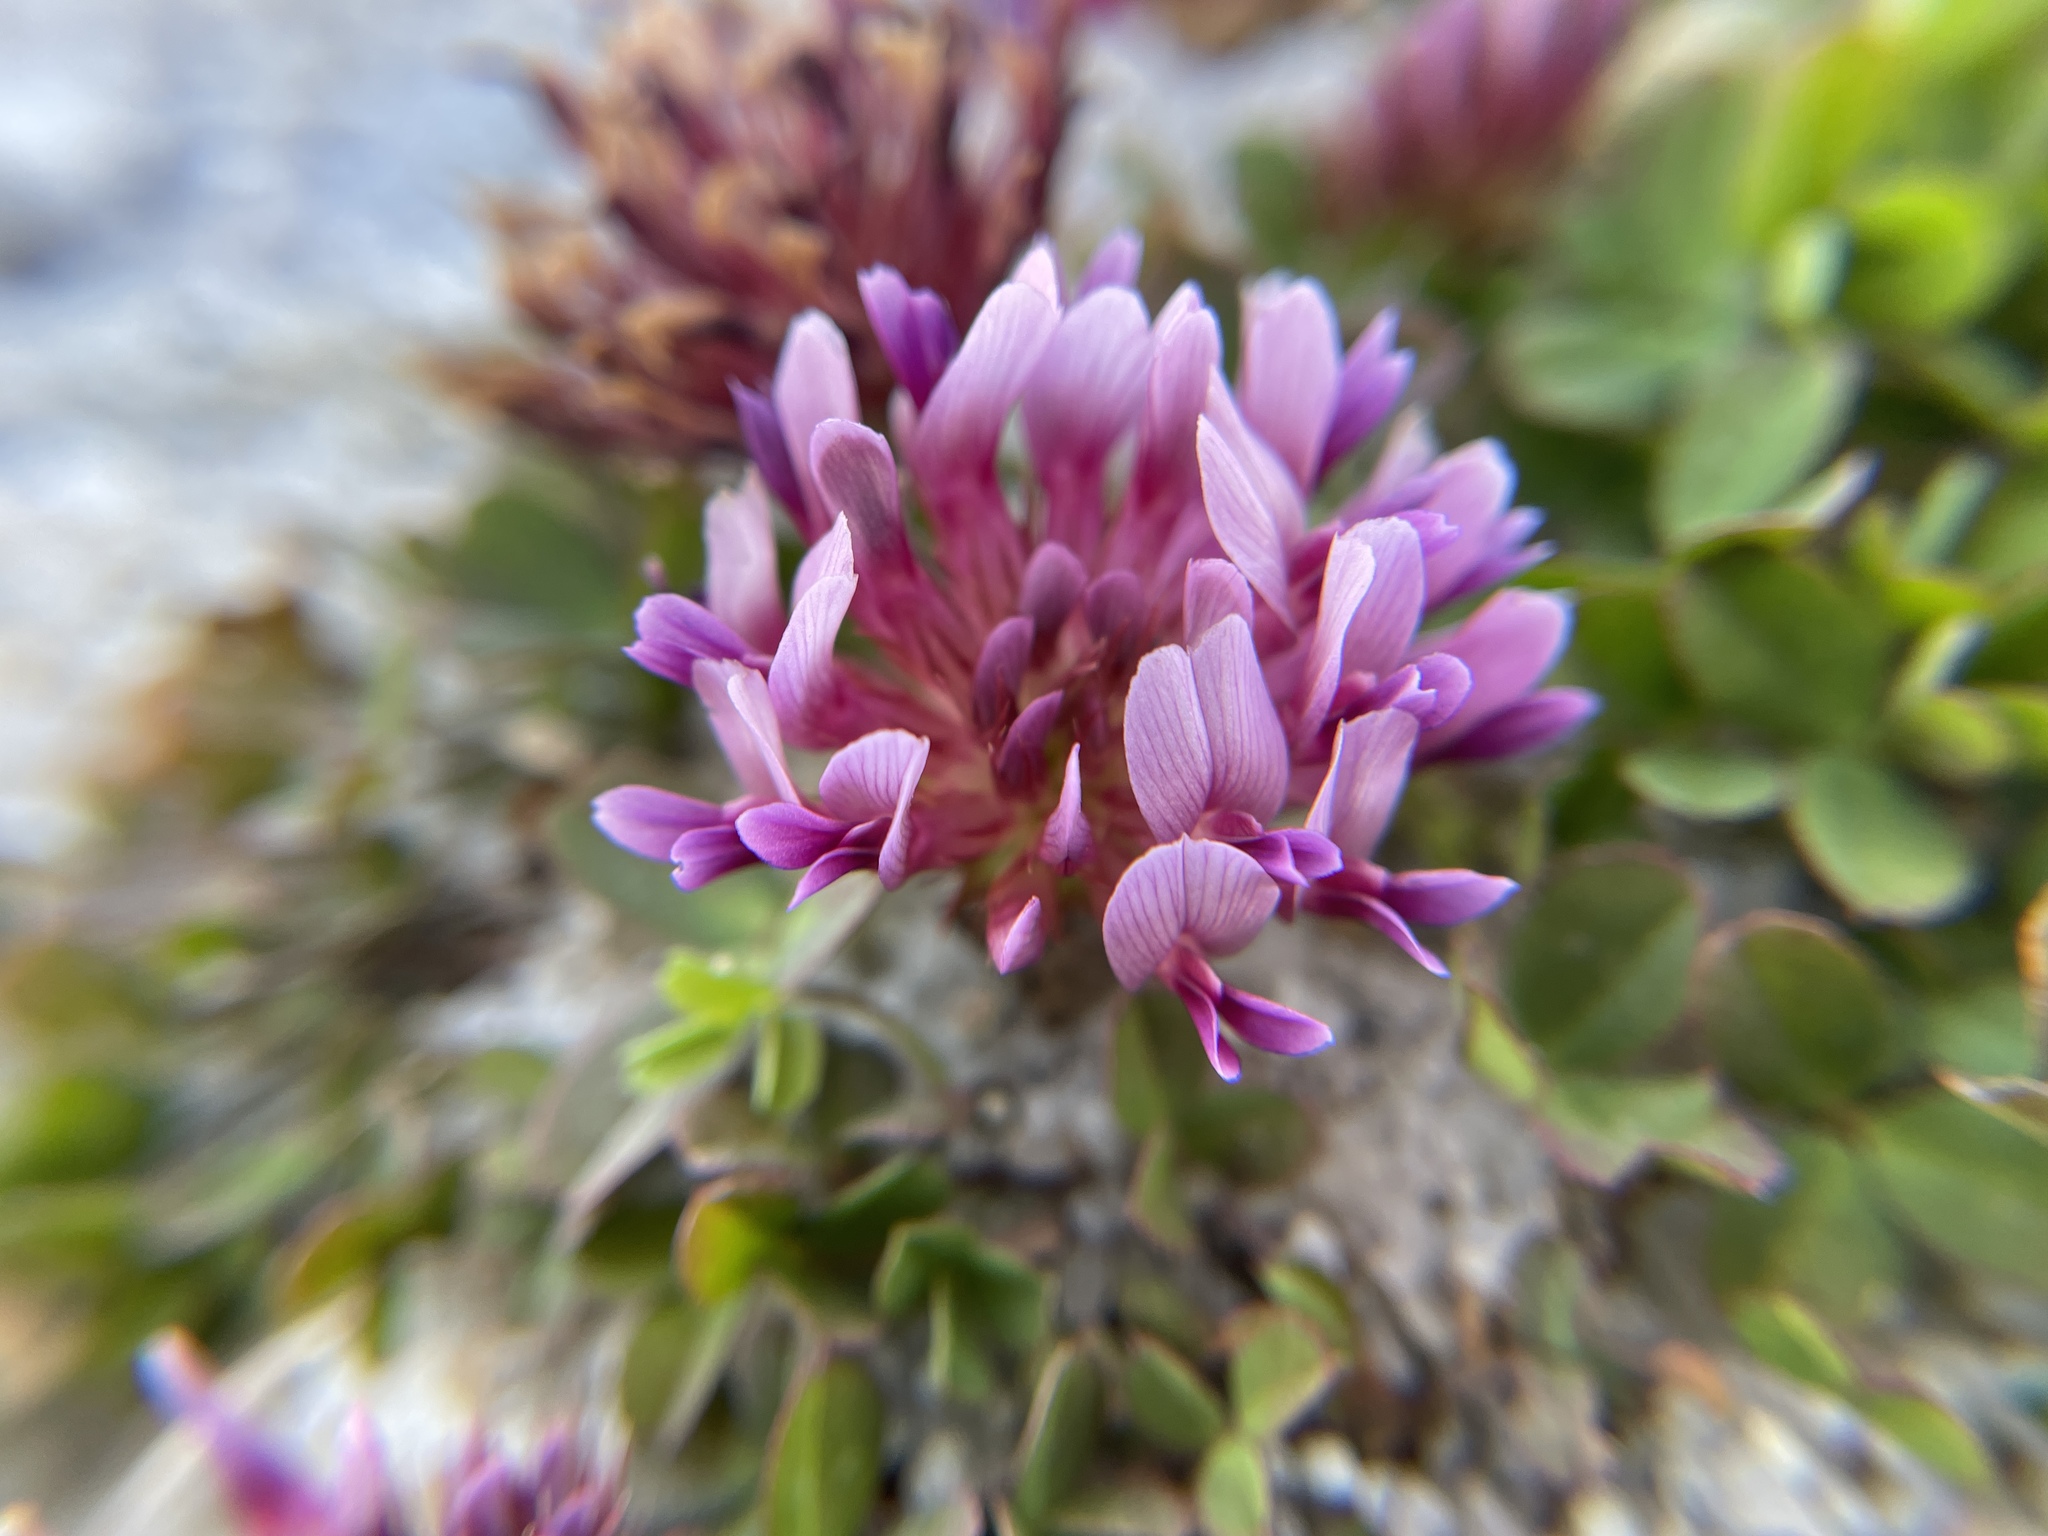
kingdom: Plantae
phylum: Tracheophyta
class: Magnoliopsida
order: Fabales
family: Fabaceae
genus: Trifolium
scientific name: Trifolium wormskioldii
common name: Springbank clover
